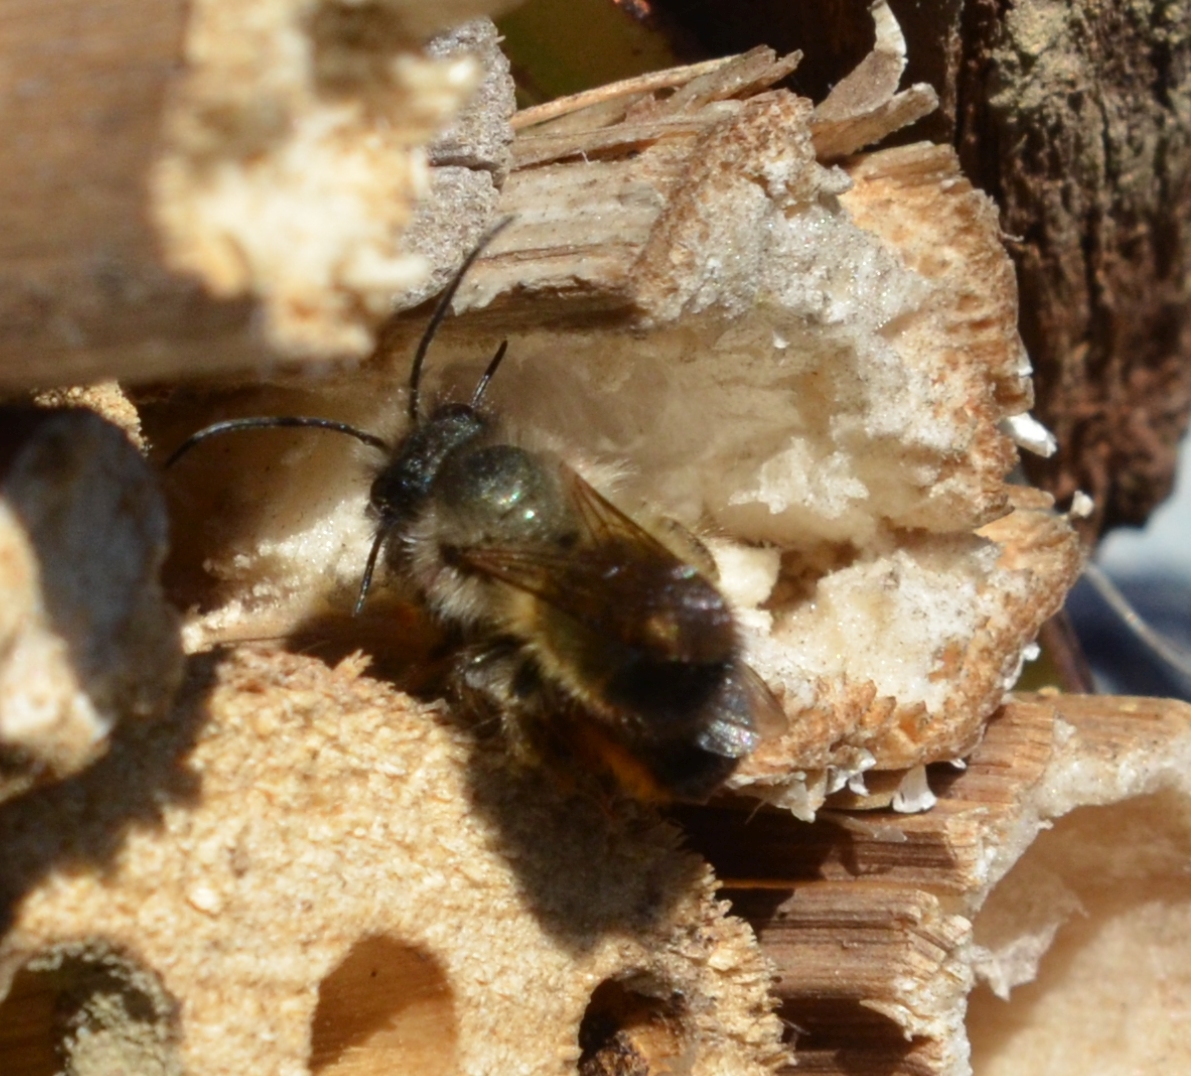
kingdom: Animalia
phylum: Arthropoda
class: Insecta
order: Hymenoptera
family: Megachilidae
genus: Osmia
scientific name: Osmia bicornis
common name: Red mason bee
